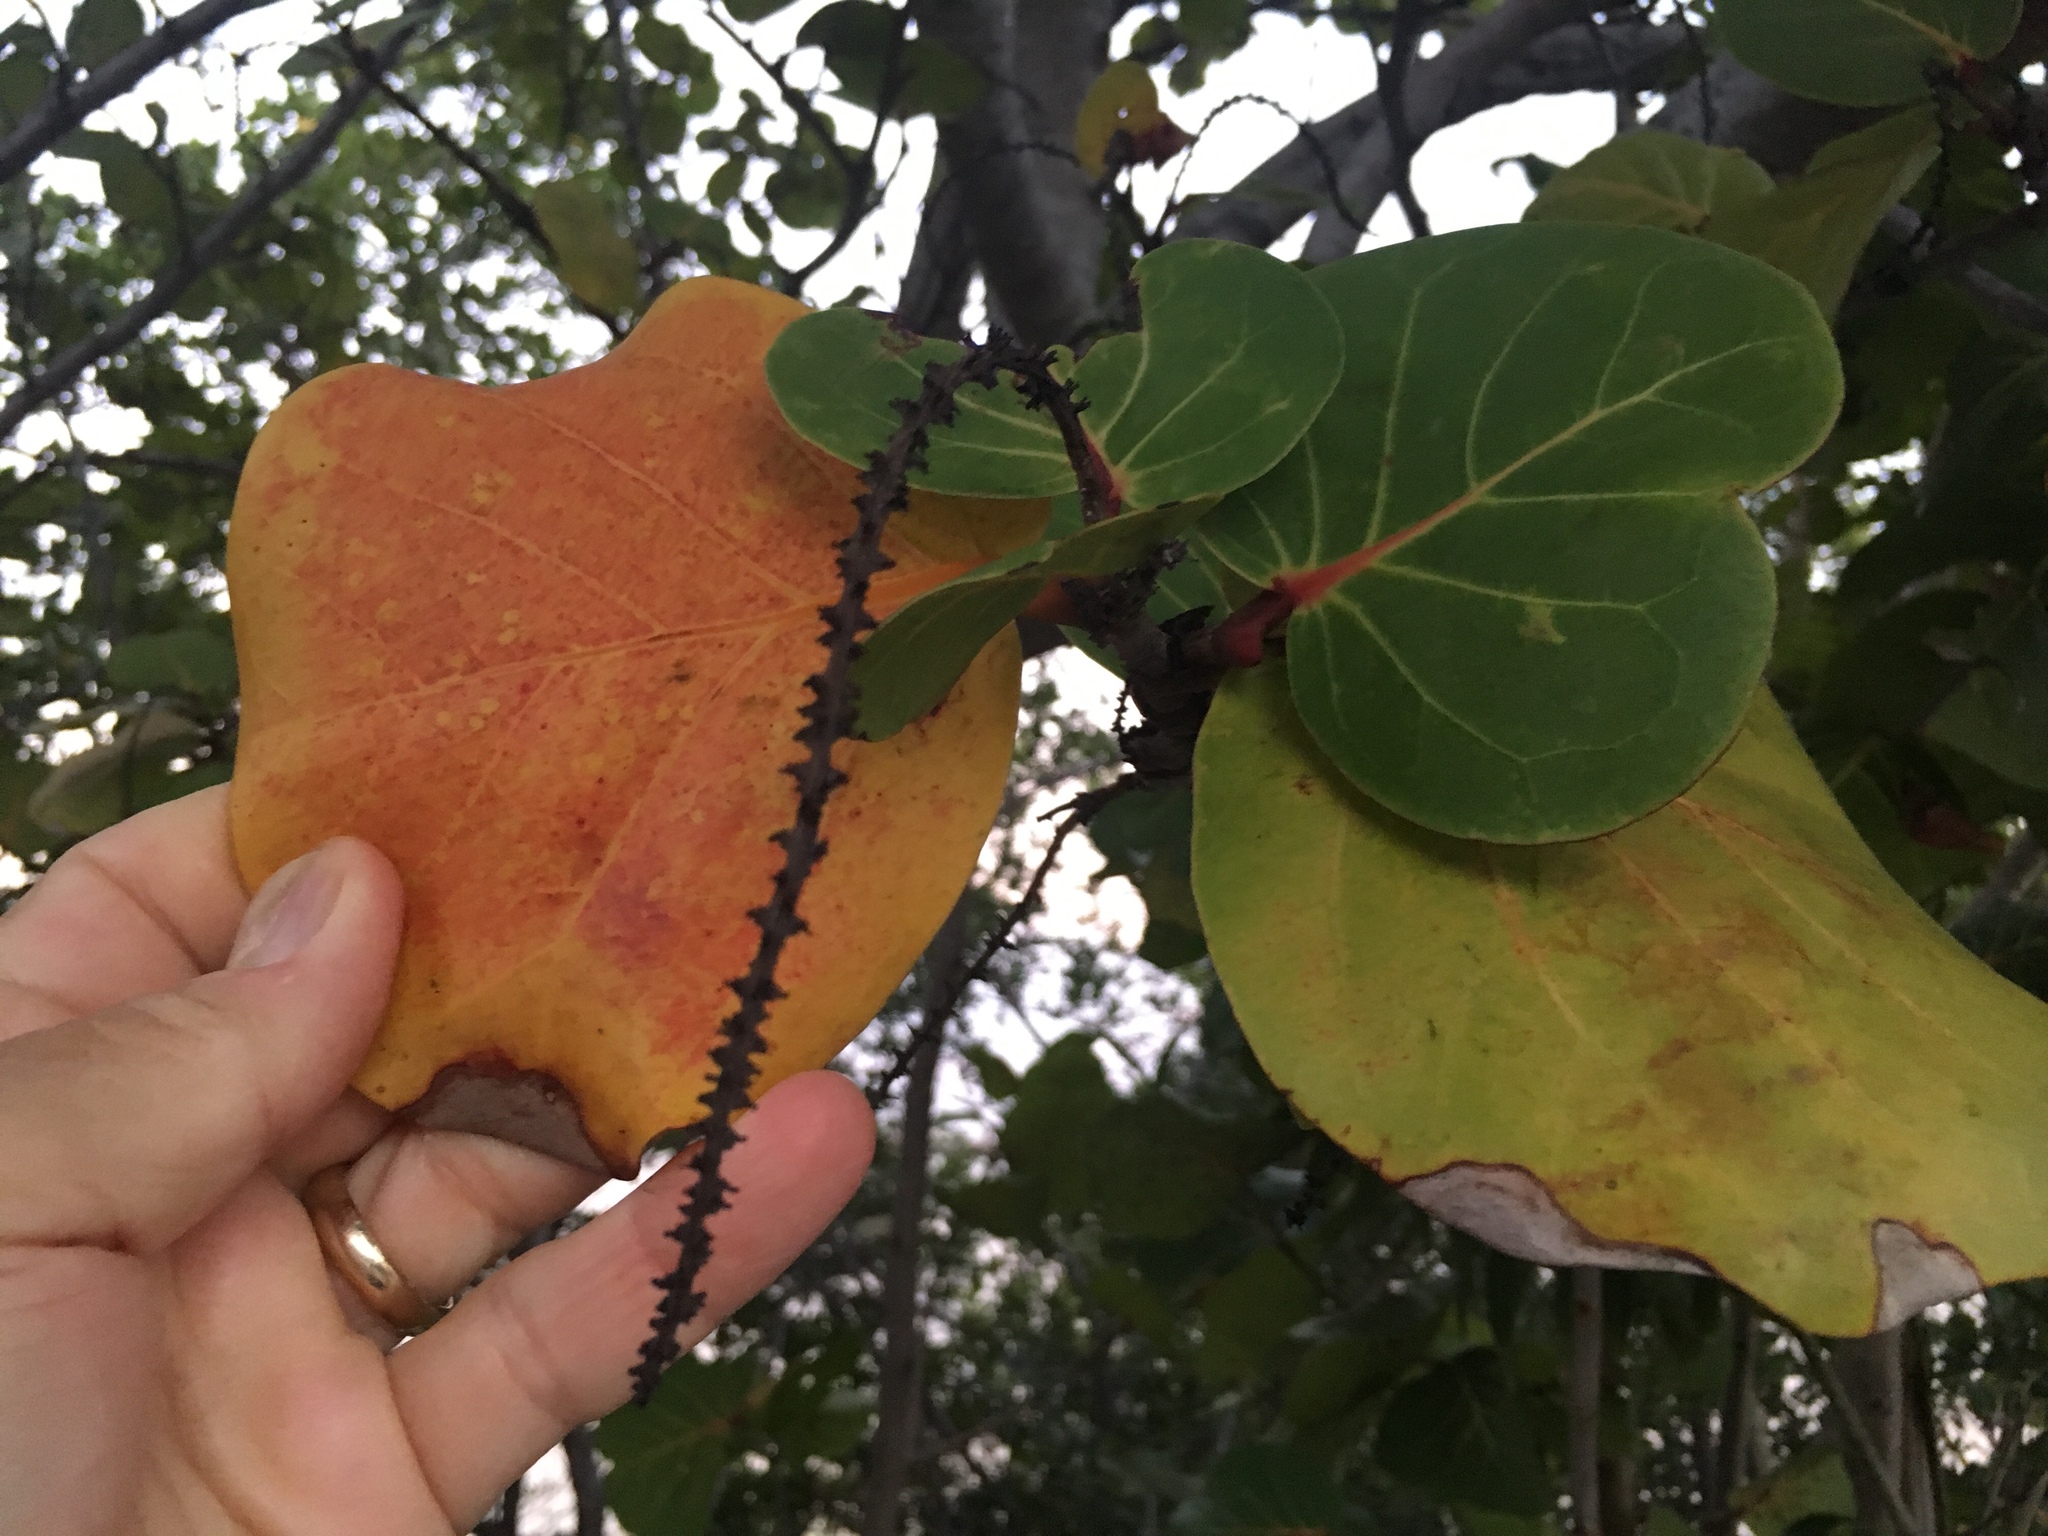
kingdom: Plantae
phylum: Tracheophyta
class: Magnoliopsida
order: Caryophyllales
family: Polygonaceae
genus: Coccoloba
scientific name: Coccoloba uvifera
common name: Seagrape
